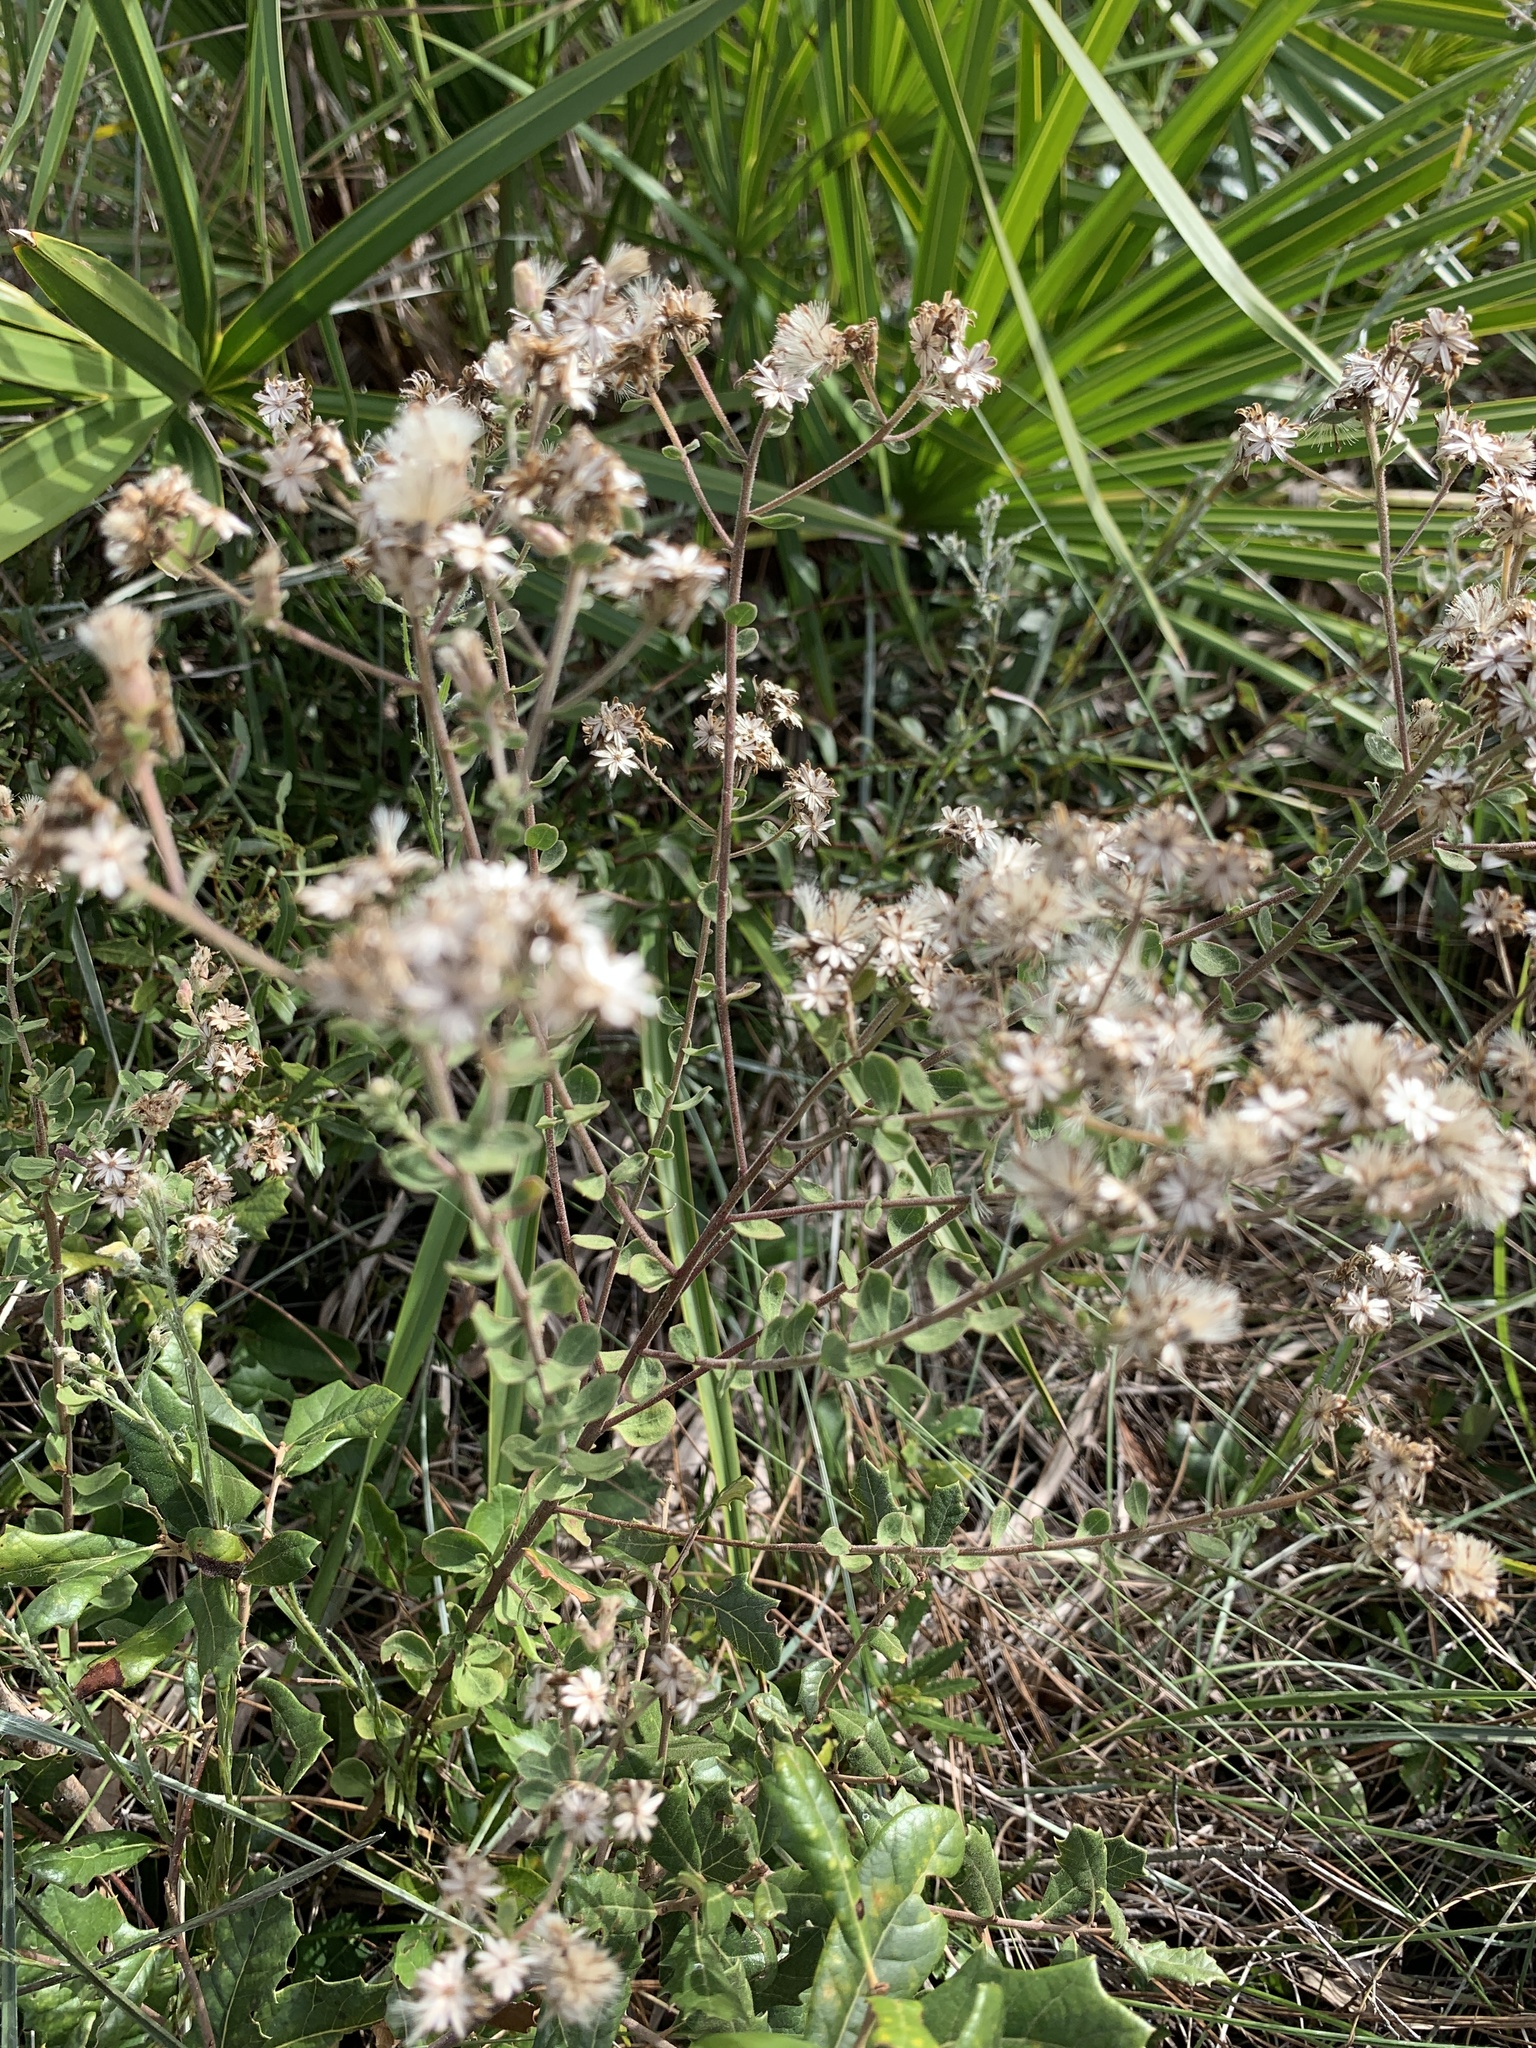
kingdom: Plantae
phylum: Tracheophyta
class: Magnoliopsida
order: Asterales
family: Asteraceae
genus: Sericocarpus
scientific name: Sericocarpus tortifolius
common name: Dixie aster
